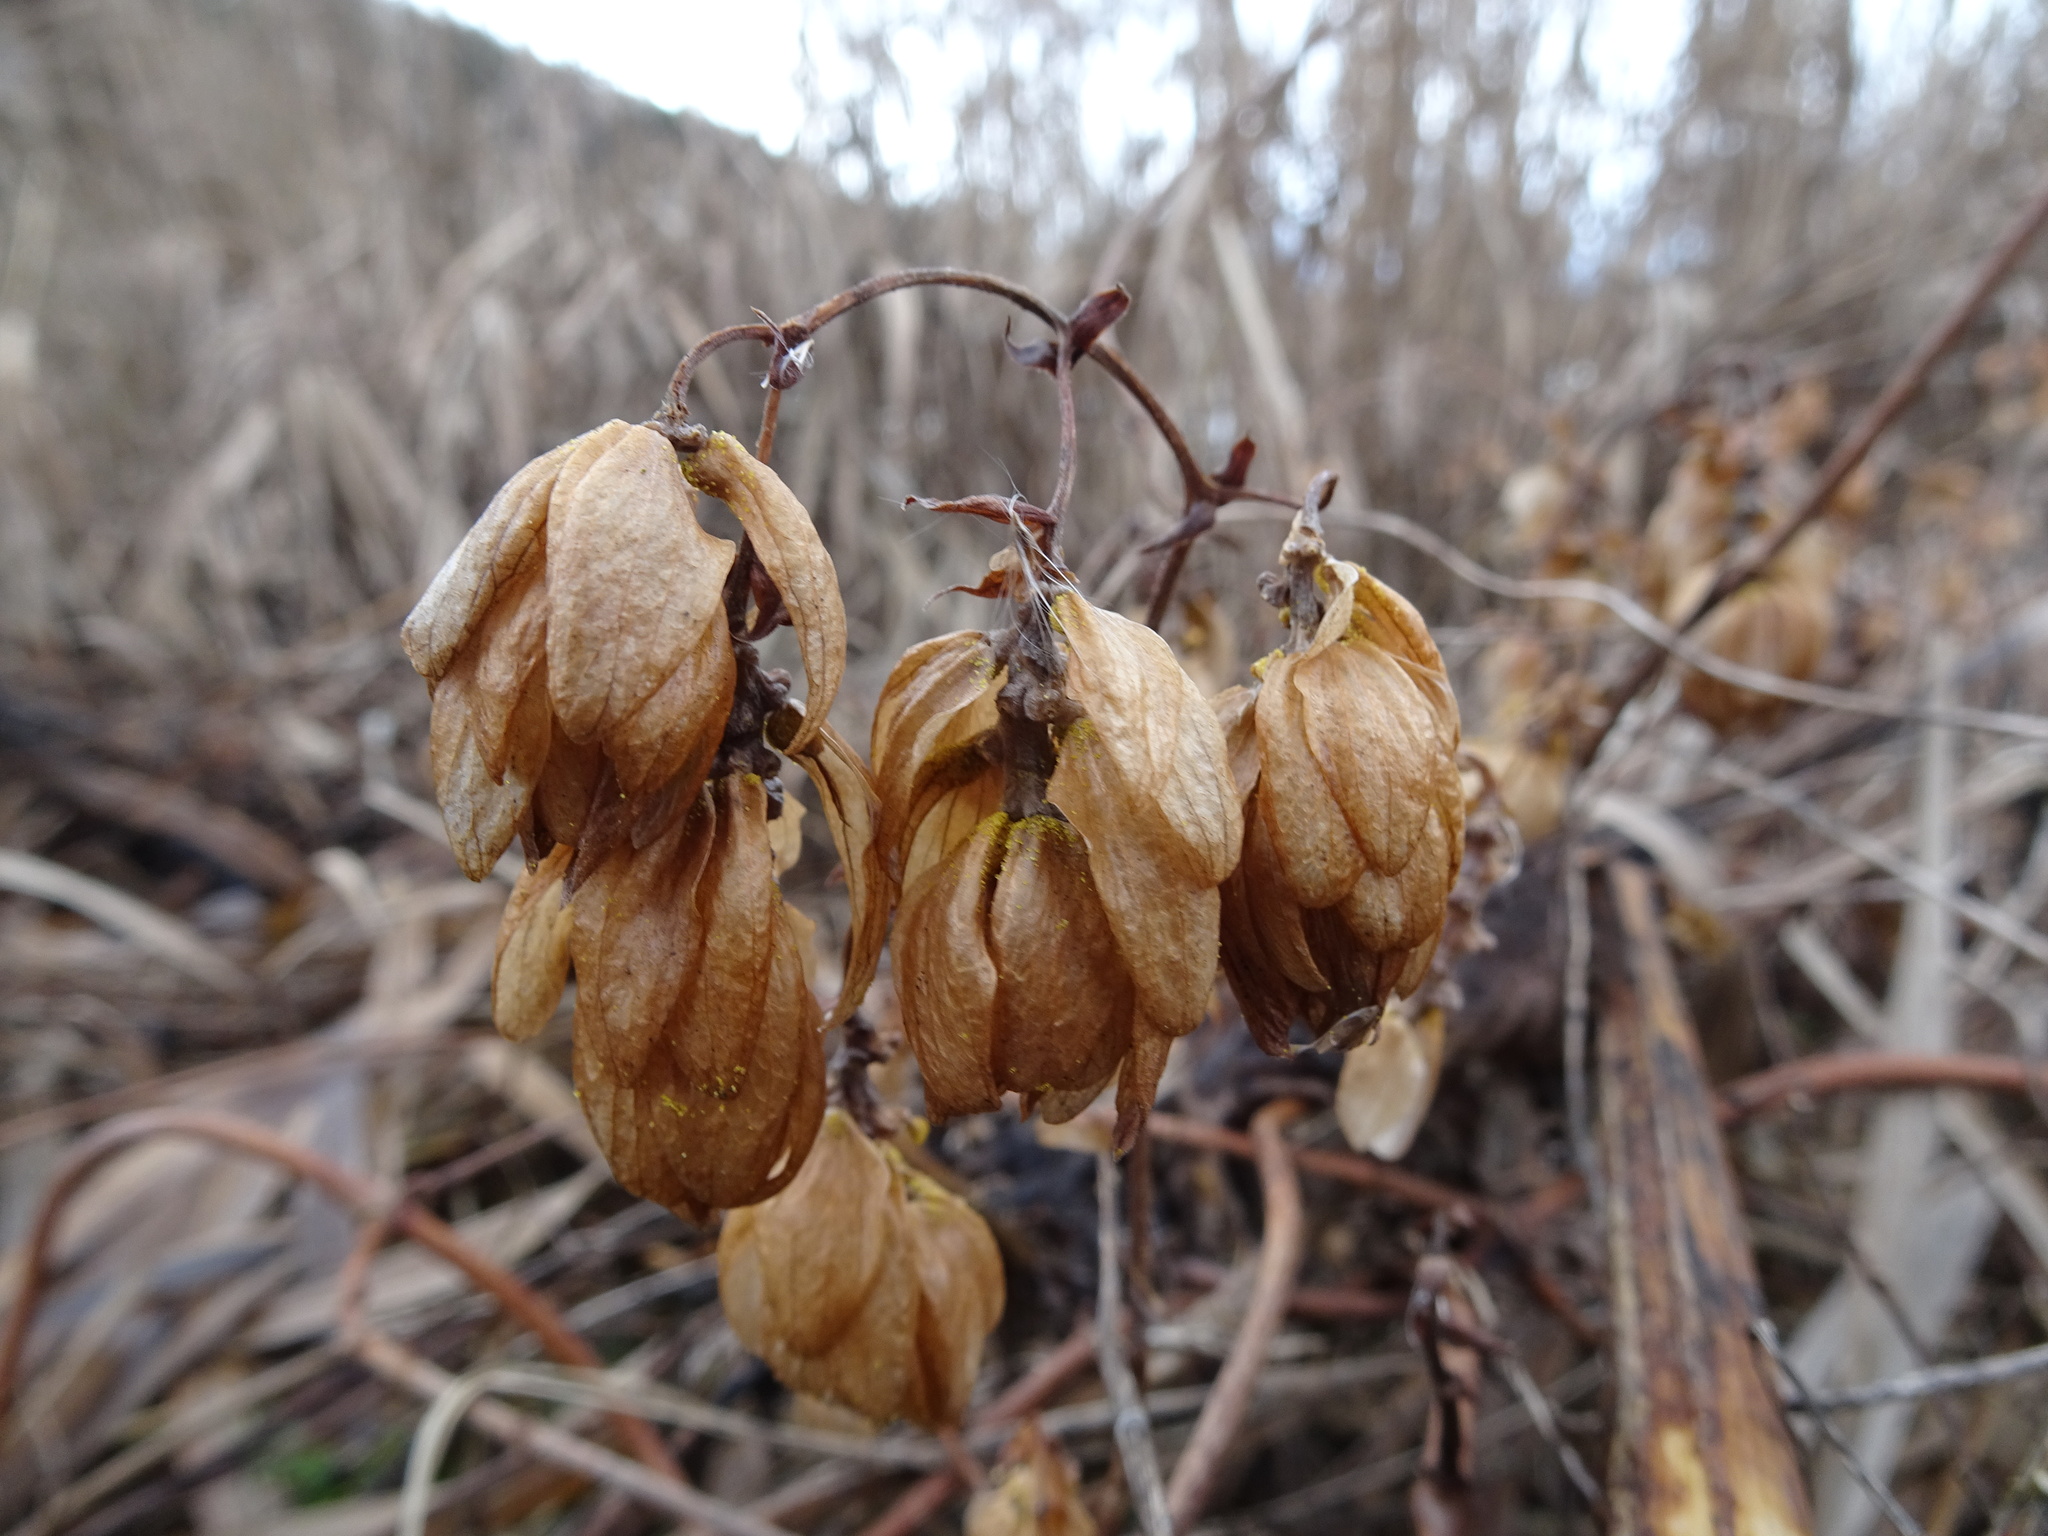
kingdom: Plantae
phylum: Tracheophyta
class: Magnoliopsida
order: Rosales
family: Cannabaceae
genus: Humulus
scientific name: Humulus lupulus
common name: Hop
